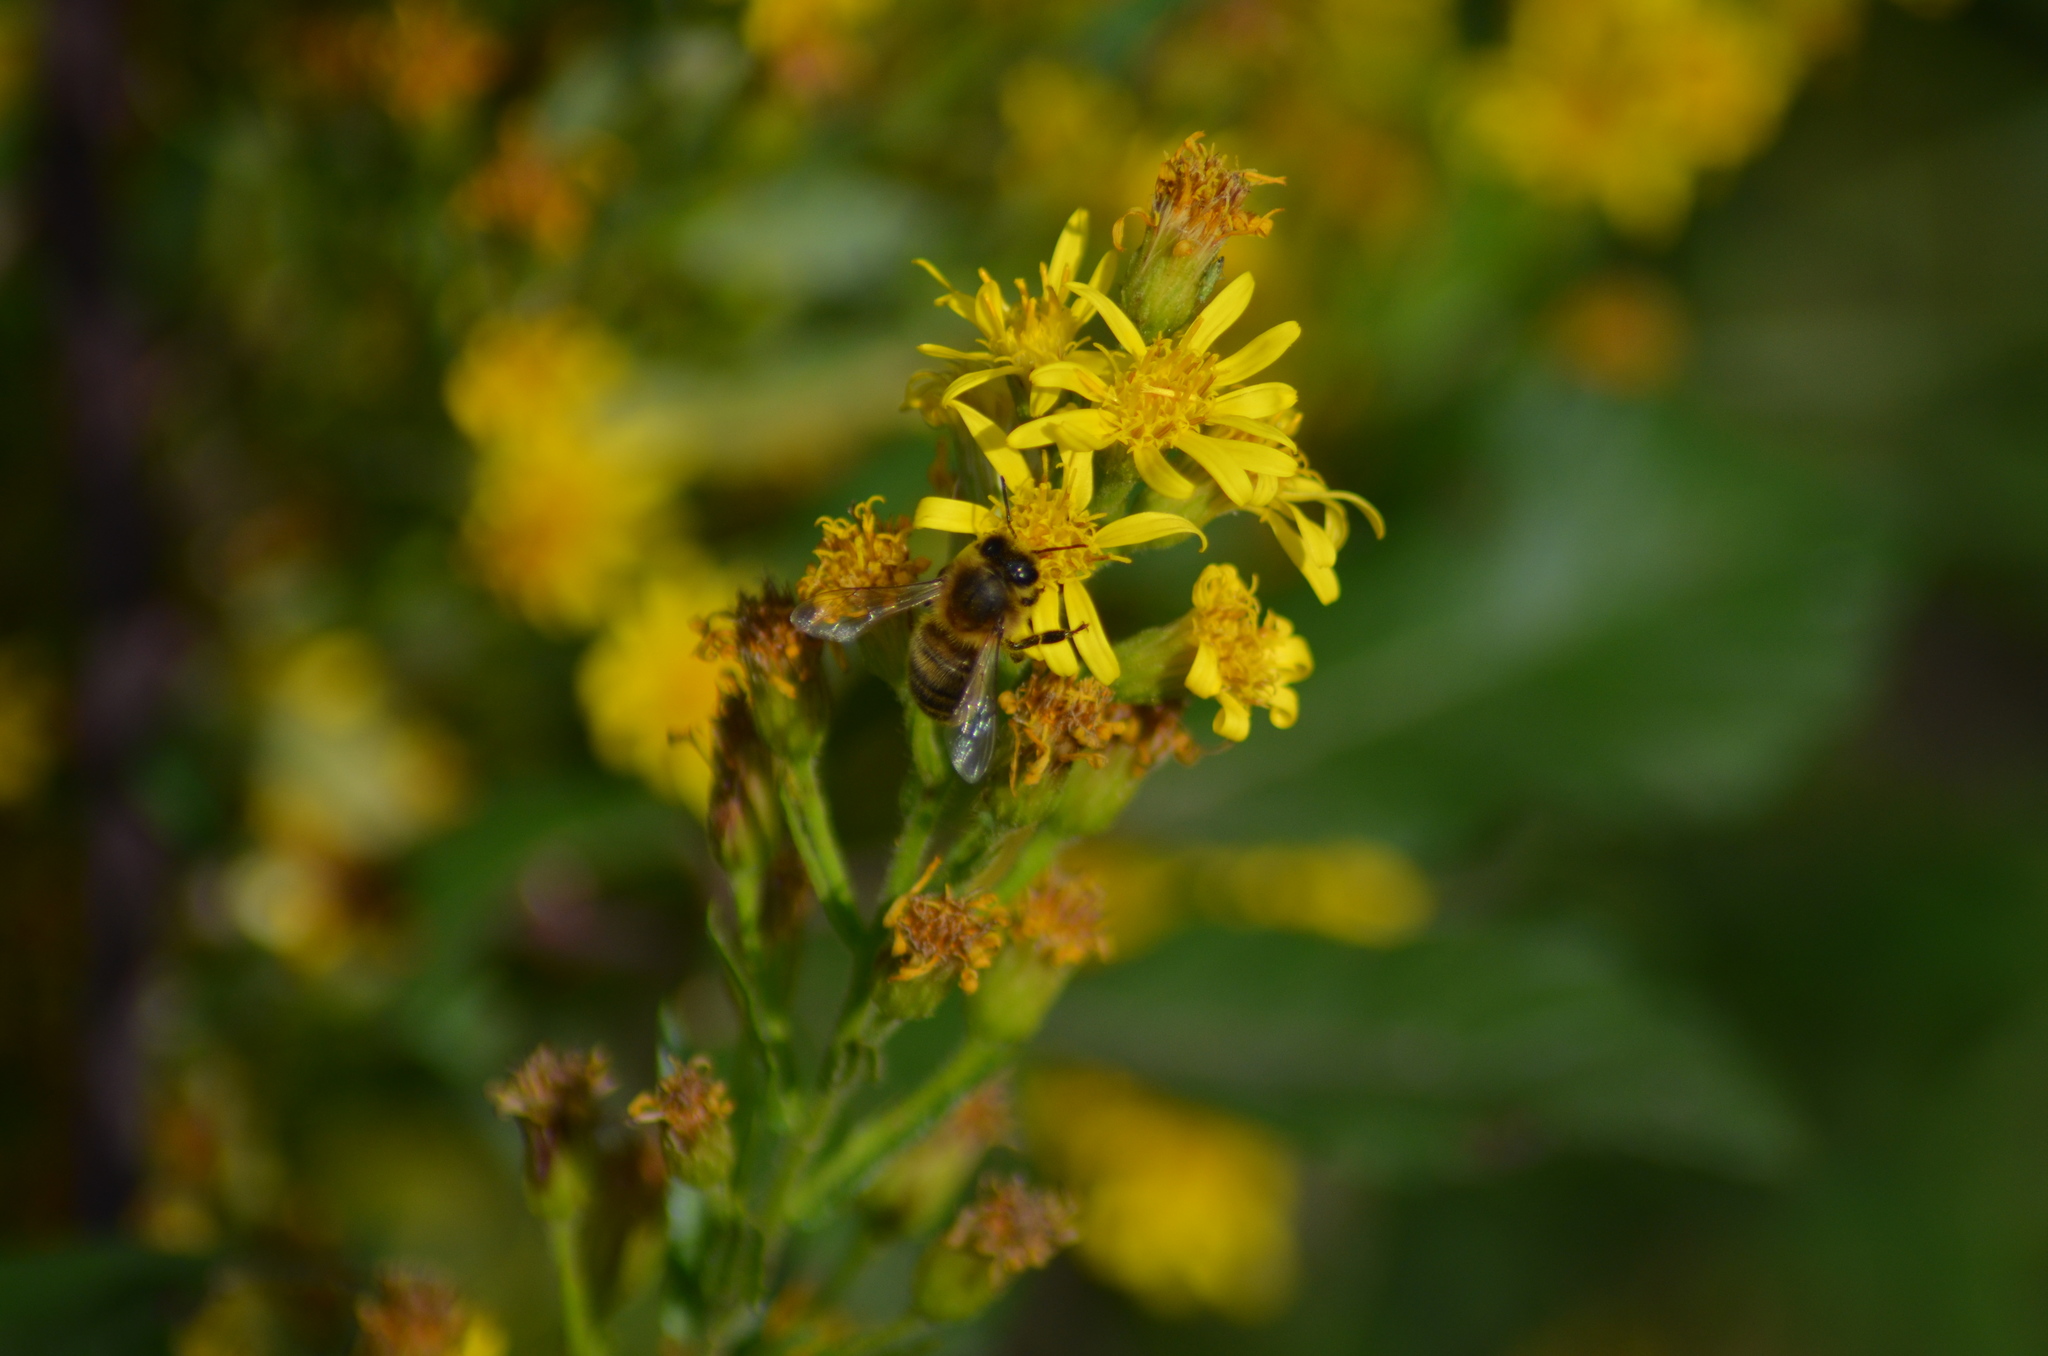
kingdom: Animalia
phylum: Arthropoda
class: Insecta
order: Hymenoptera
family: Apidae
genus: Apis
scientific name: Apis mellifera
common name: Honey bee
